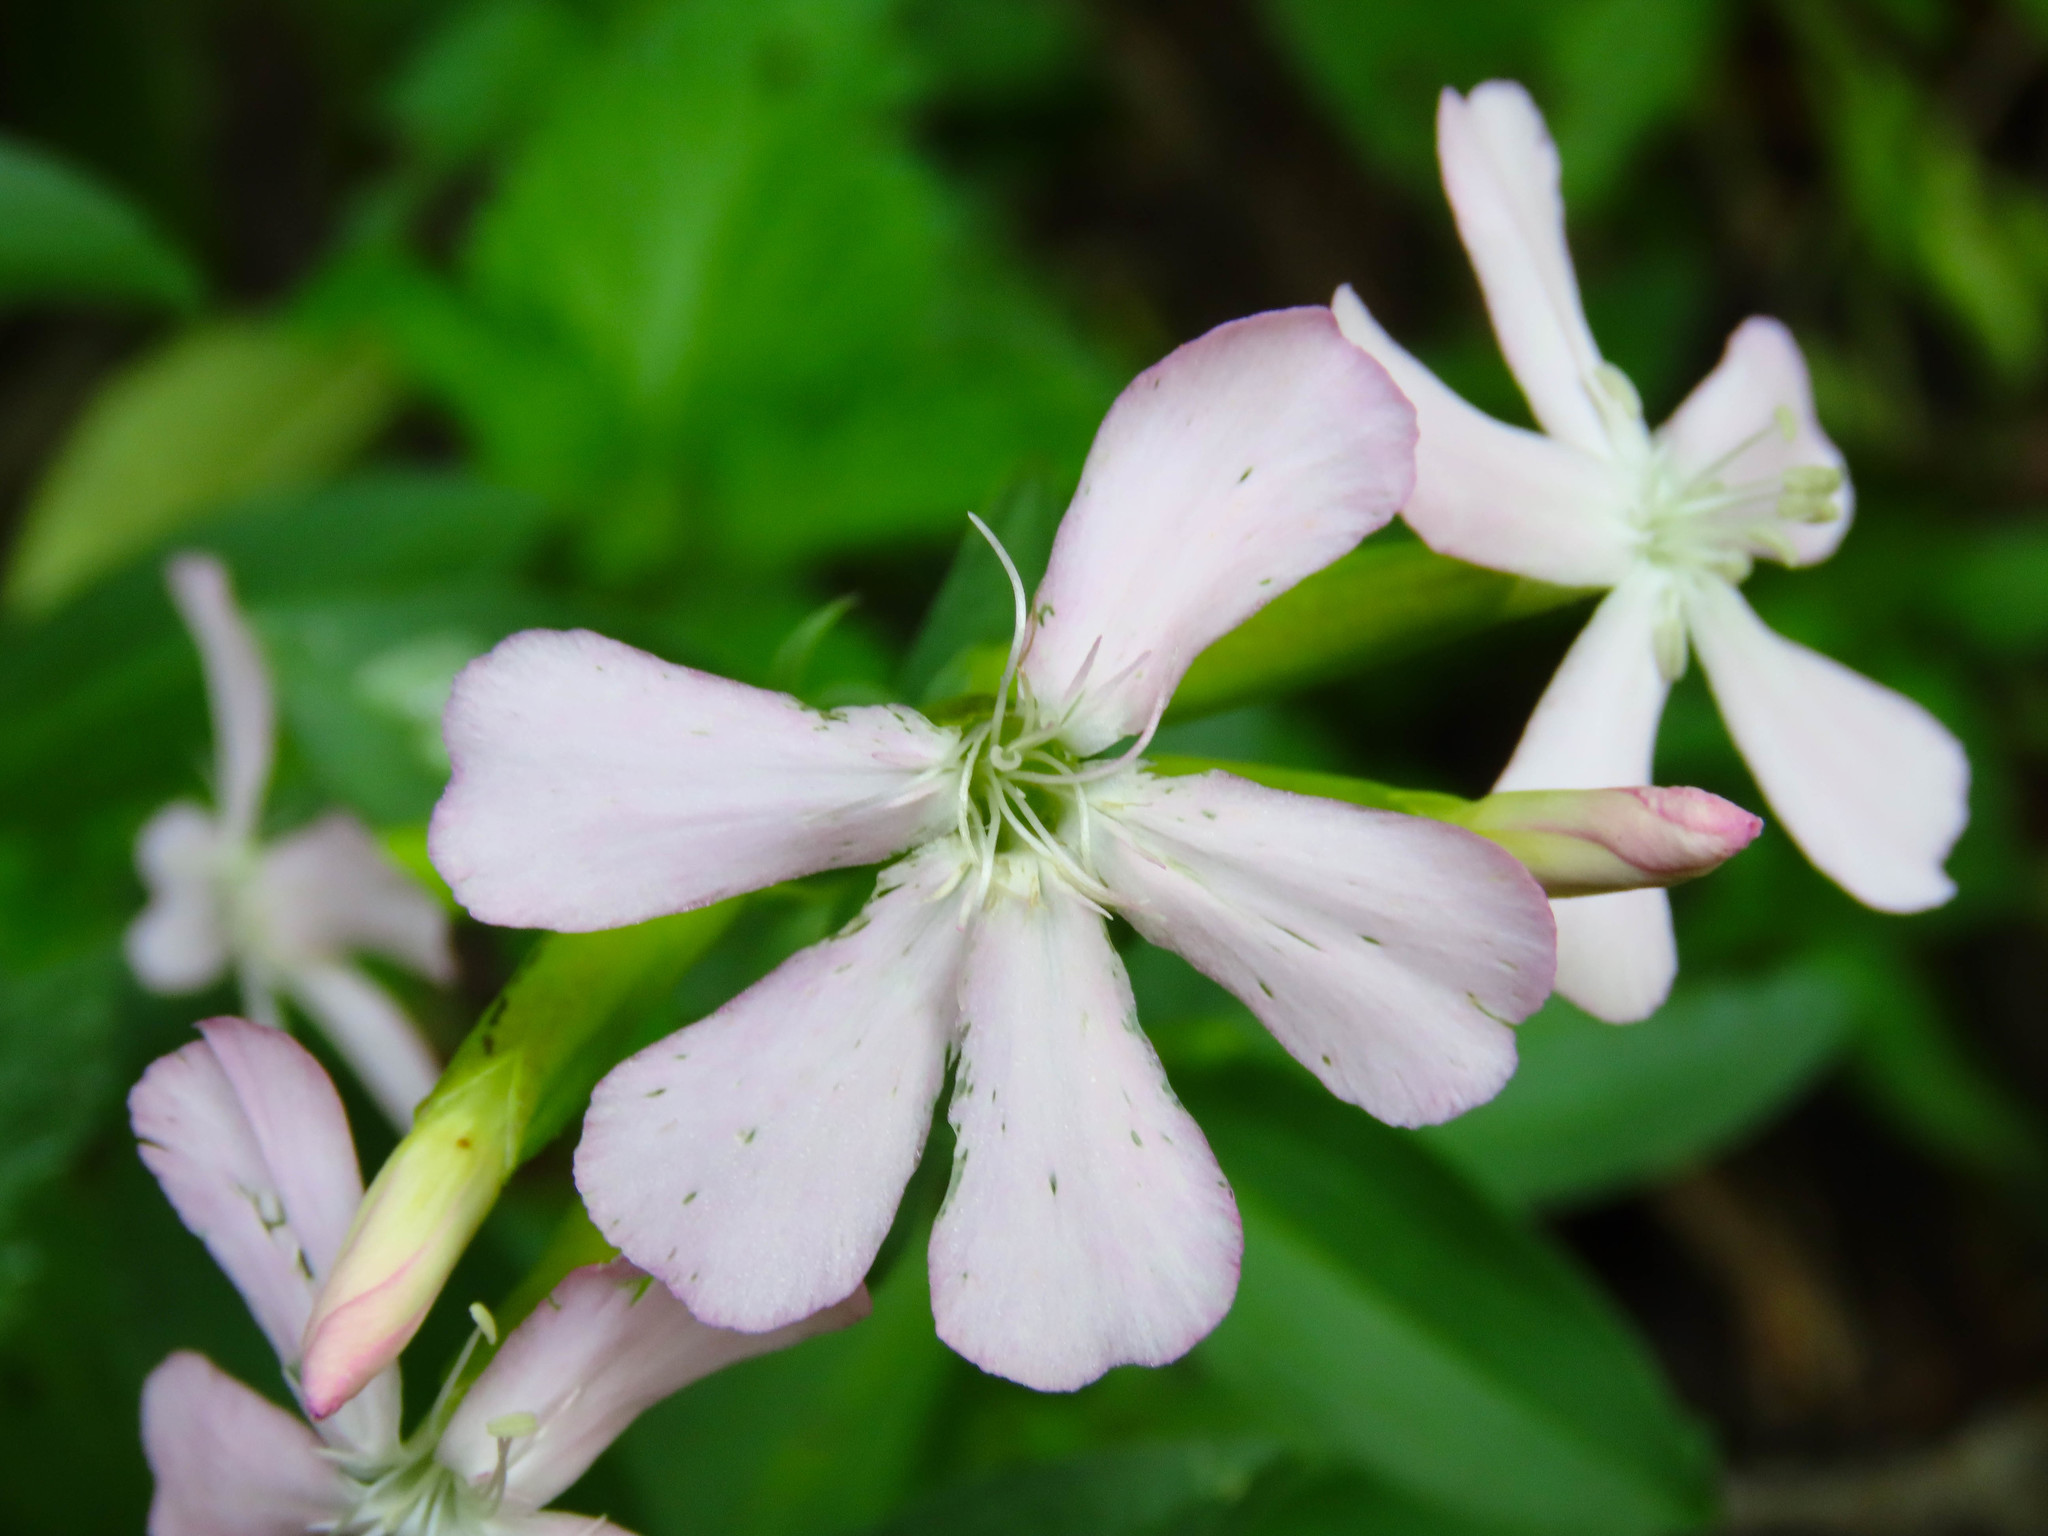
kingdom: Plantae
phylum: Tracheophyta
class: Magnoliopsida
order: Caryophyllales
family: Caryophyllaceae
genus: Saponaria
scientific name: Saponaria officinalis
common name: Soapwort
